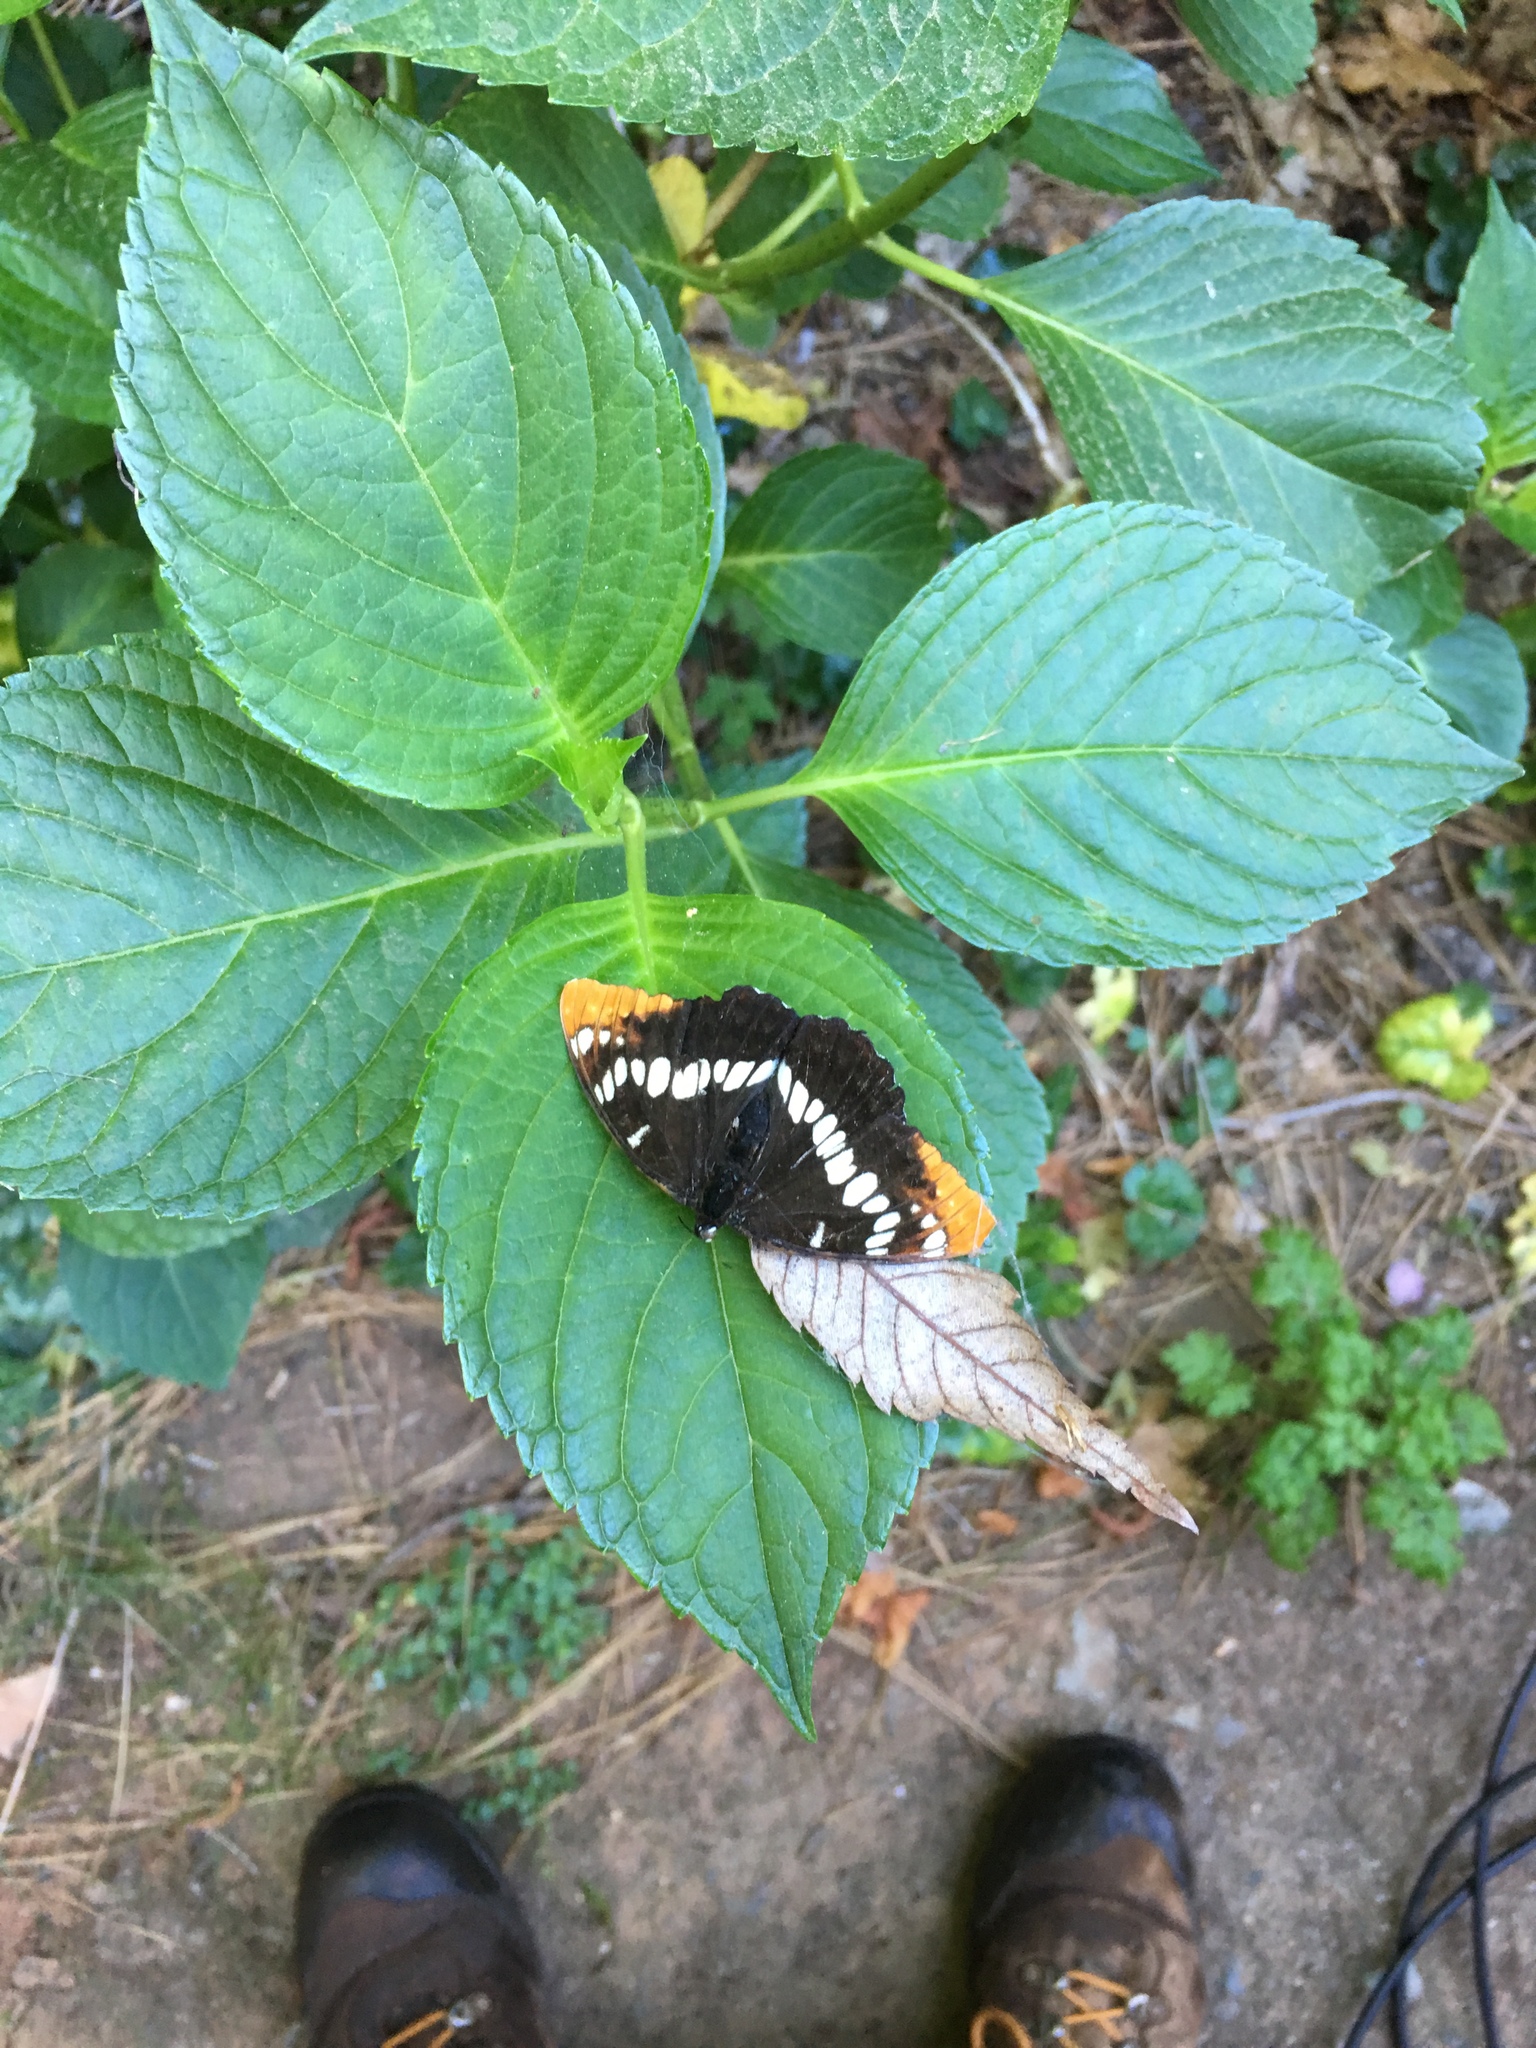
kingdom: Animalia
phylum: Arthropoda
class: Insecta
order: Lepidoptera
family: Nymphalidae
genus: Limenitis
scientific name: Limenitis lorquini
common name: Lorquin's admiral
